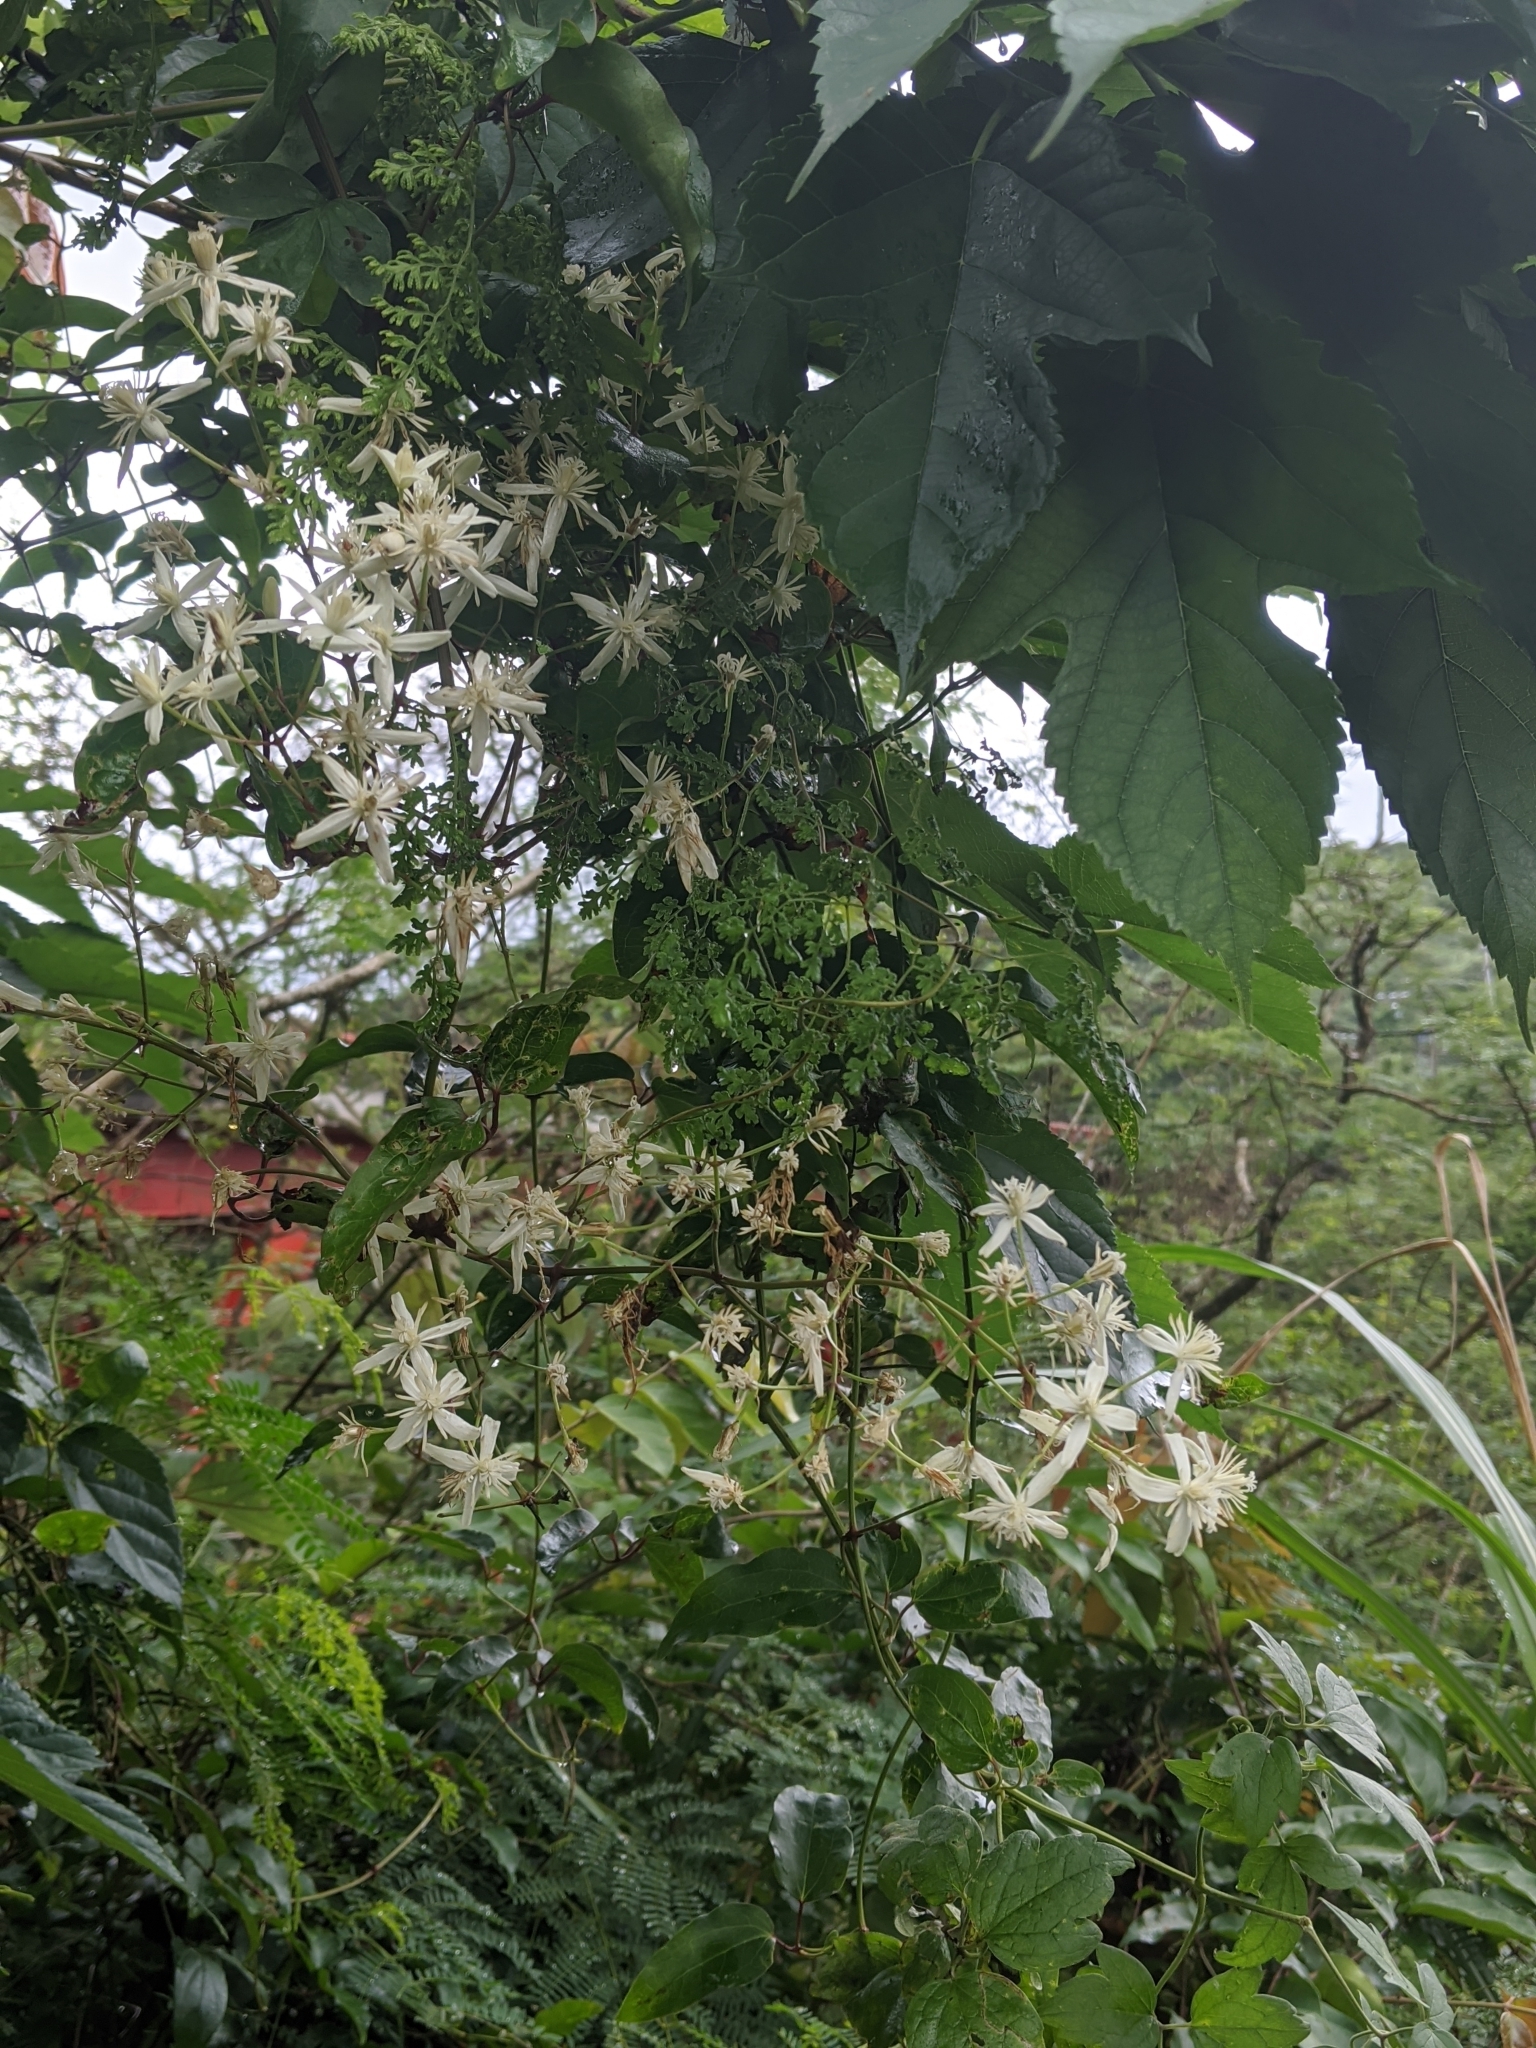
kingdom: Plantae
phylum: Tracheophyta
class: Magnoliopsida
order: Ranunculales
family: Ranunculaceae
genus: Clematis
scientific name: Clematis grata
